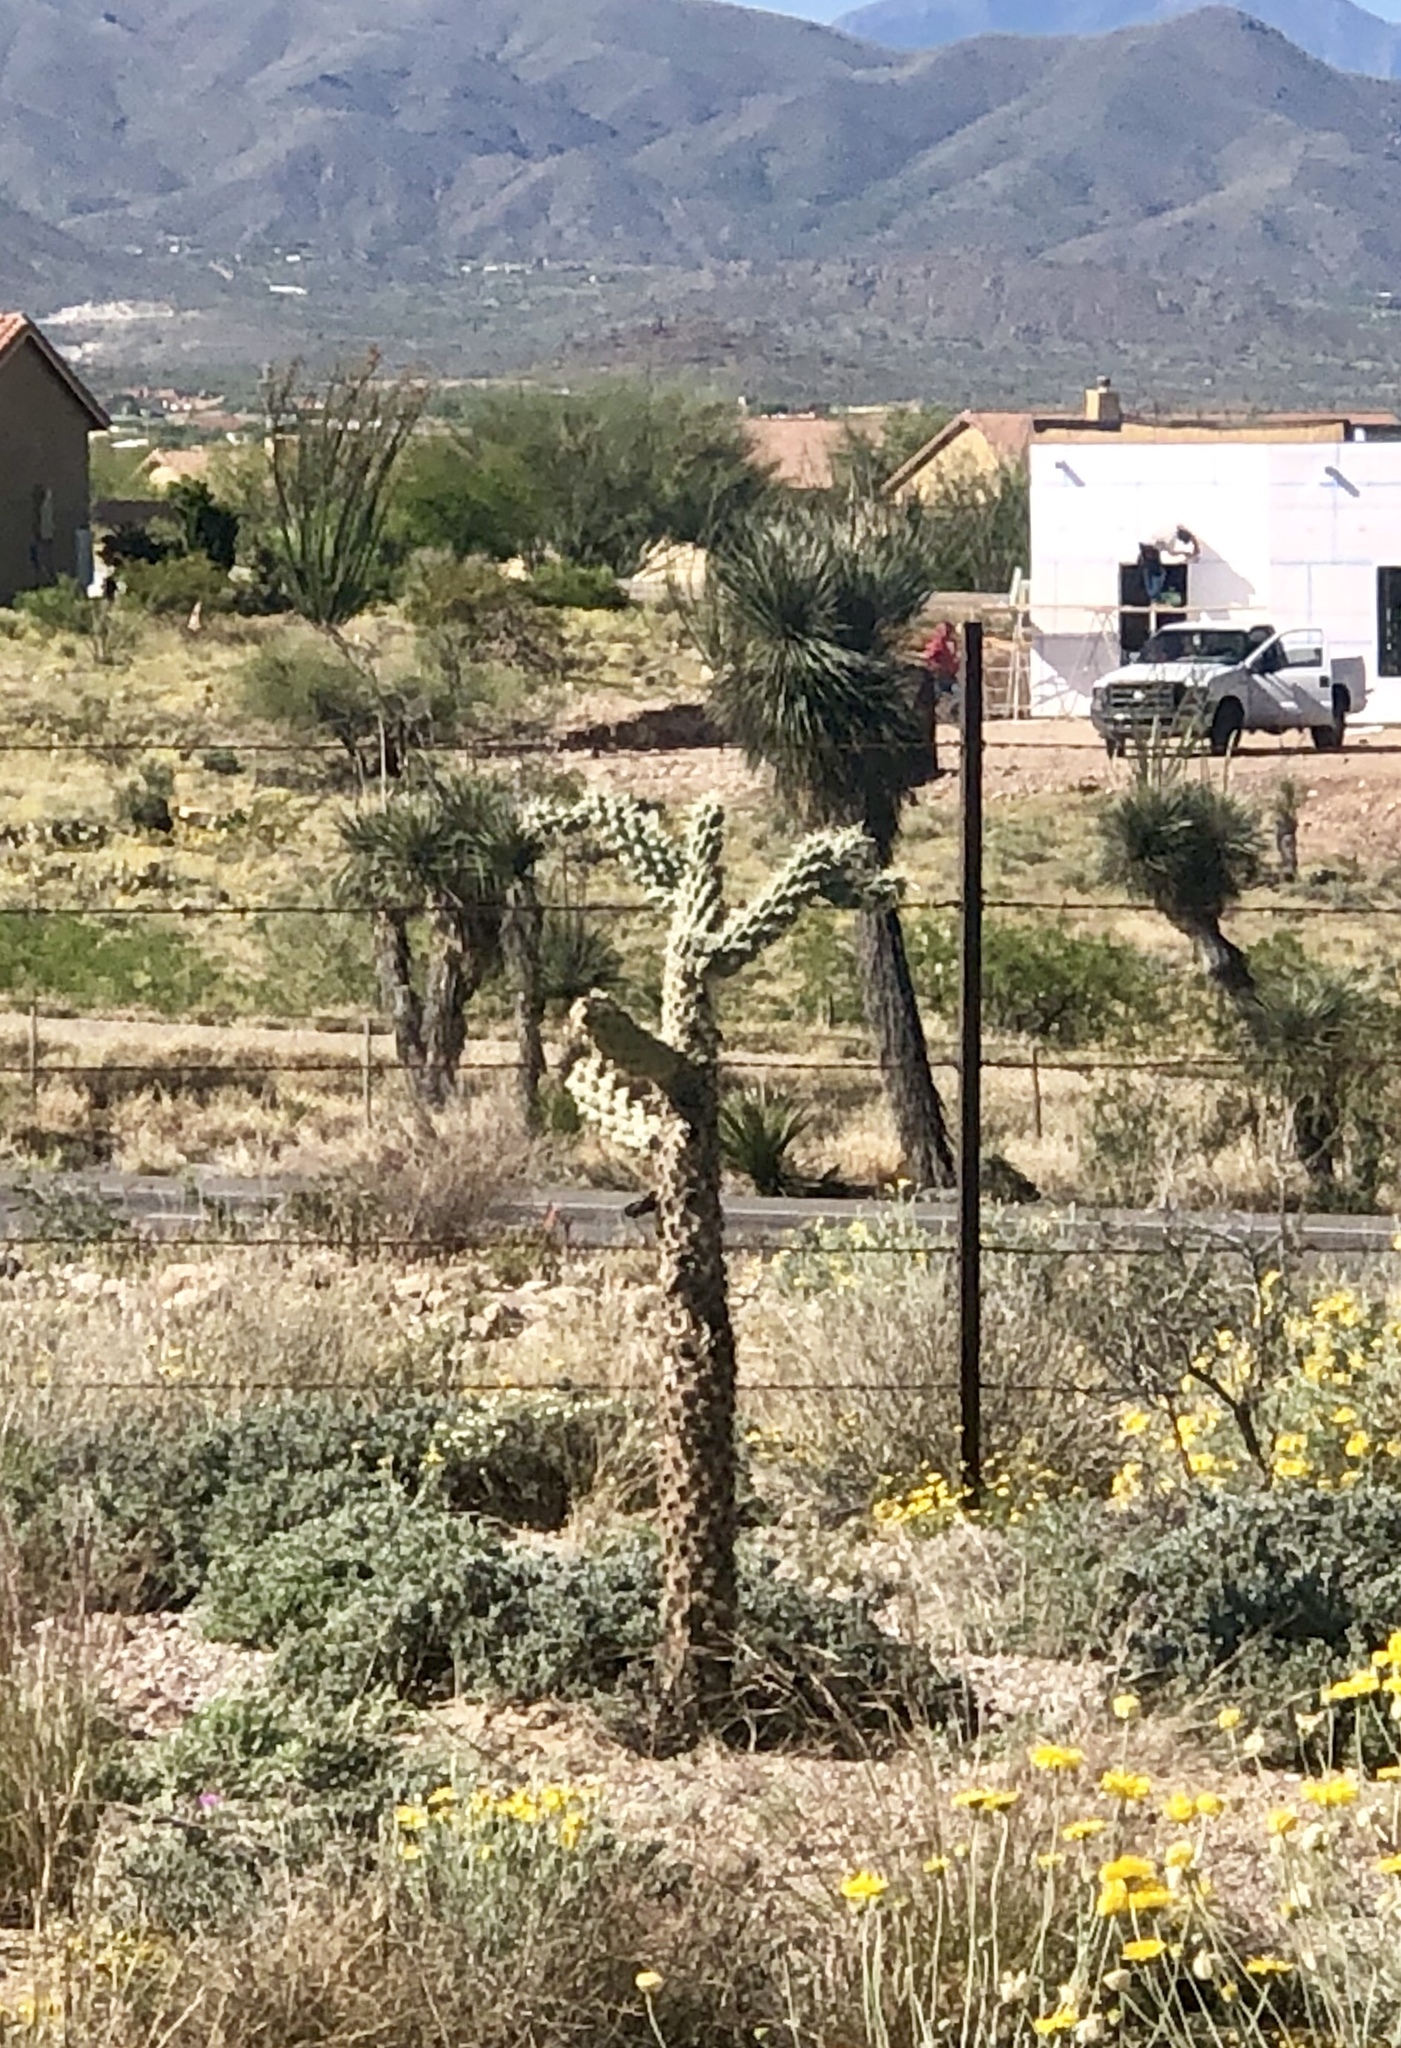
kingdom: Plantae
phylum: Tracheophyta
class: Magnoliopsida
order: Caryophyllales
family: Cactaceae
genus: Cylindropuntia
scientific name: Cylindropuntia fulgida
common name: Jumping cholla
